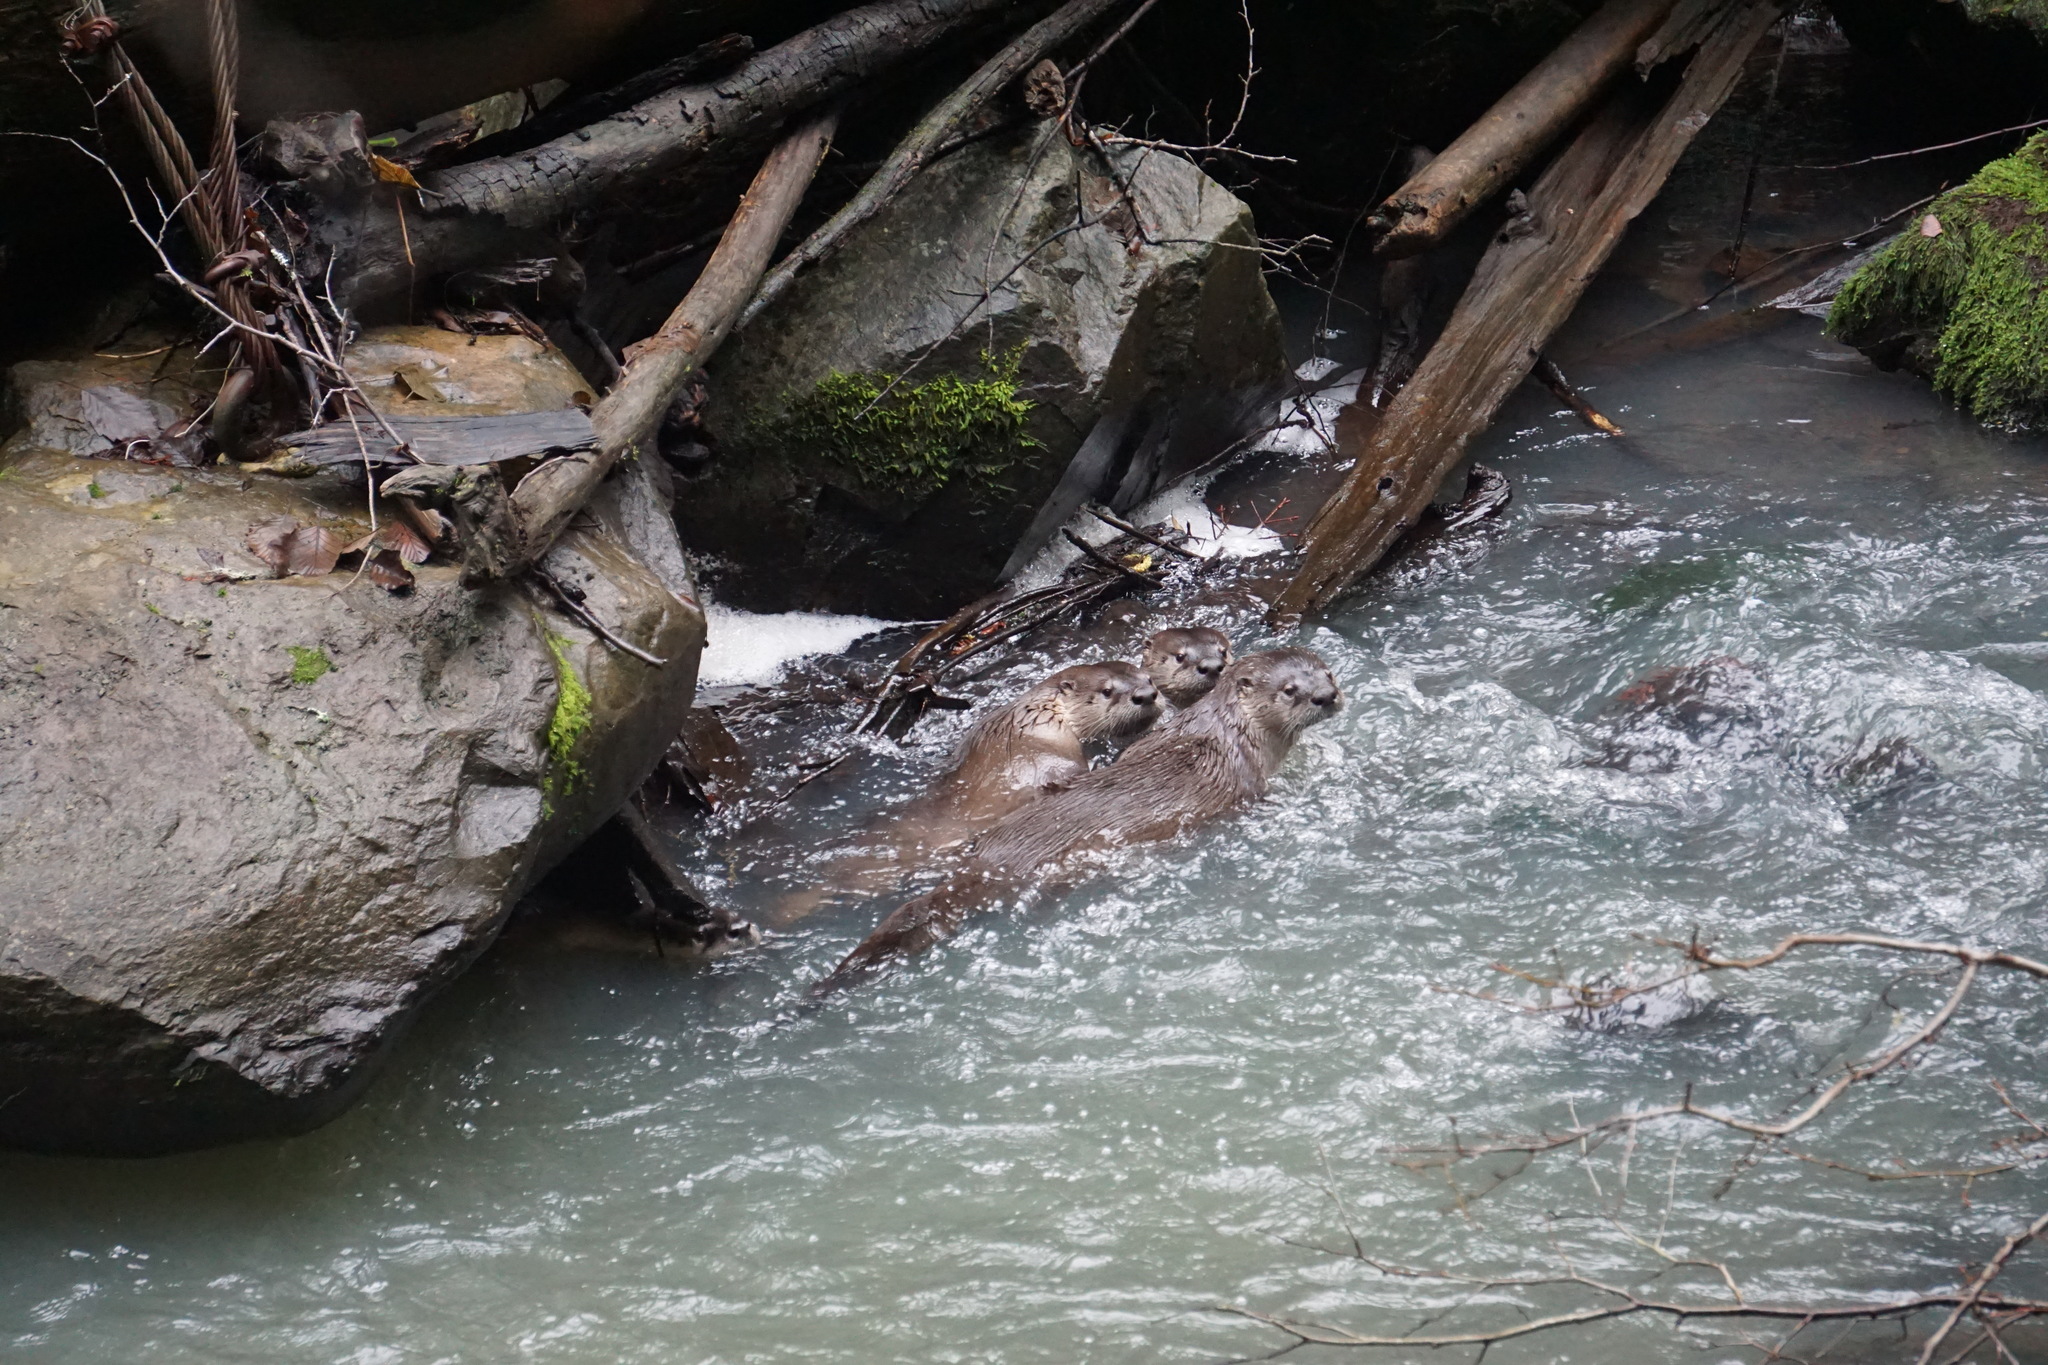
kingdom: Animalia
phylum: Chordata
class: Mammalia
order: Carnivora
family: Mustelidae
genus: Lontra
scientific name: Lontra canadensis
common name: North american river otter
